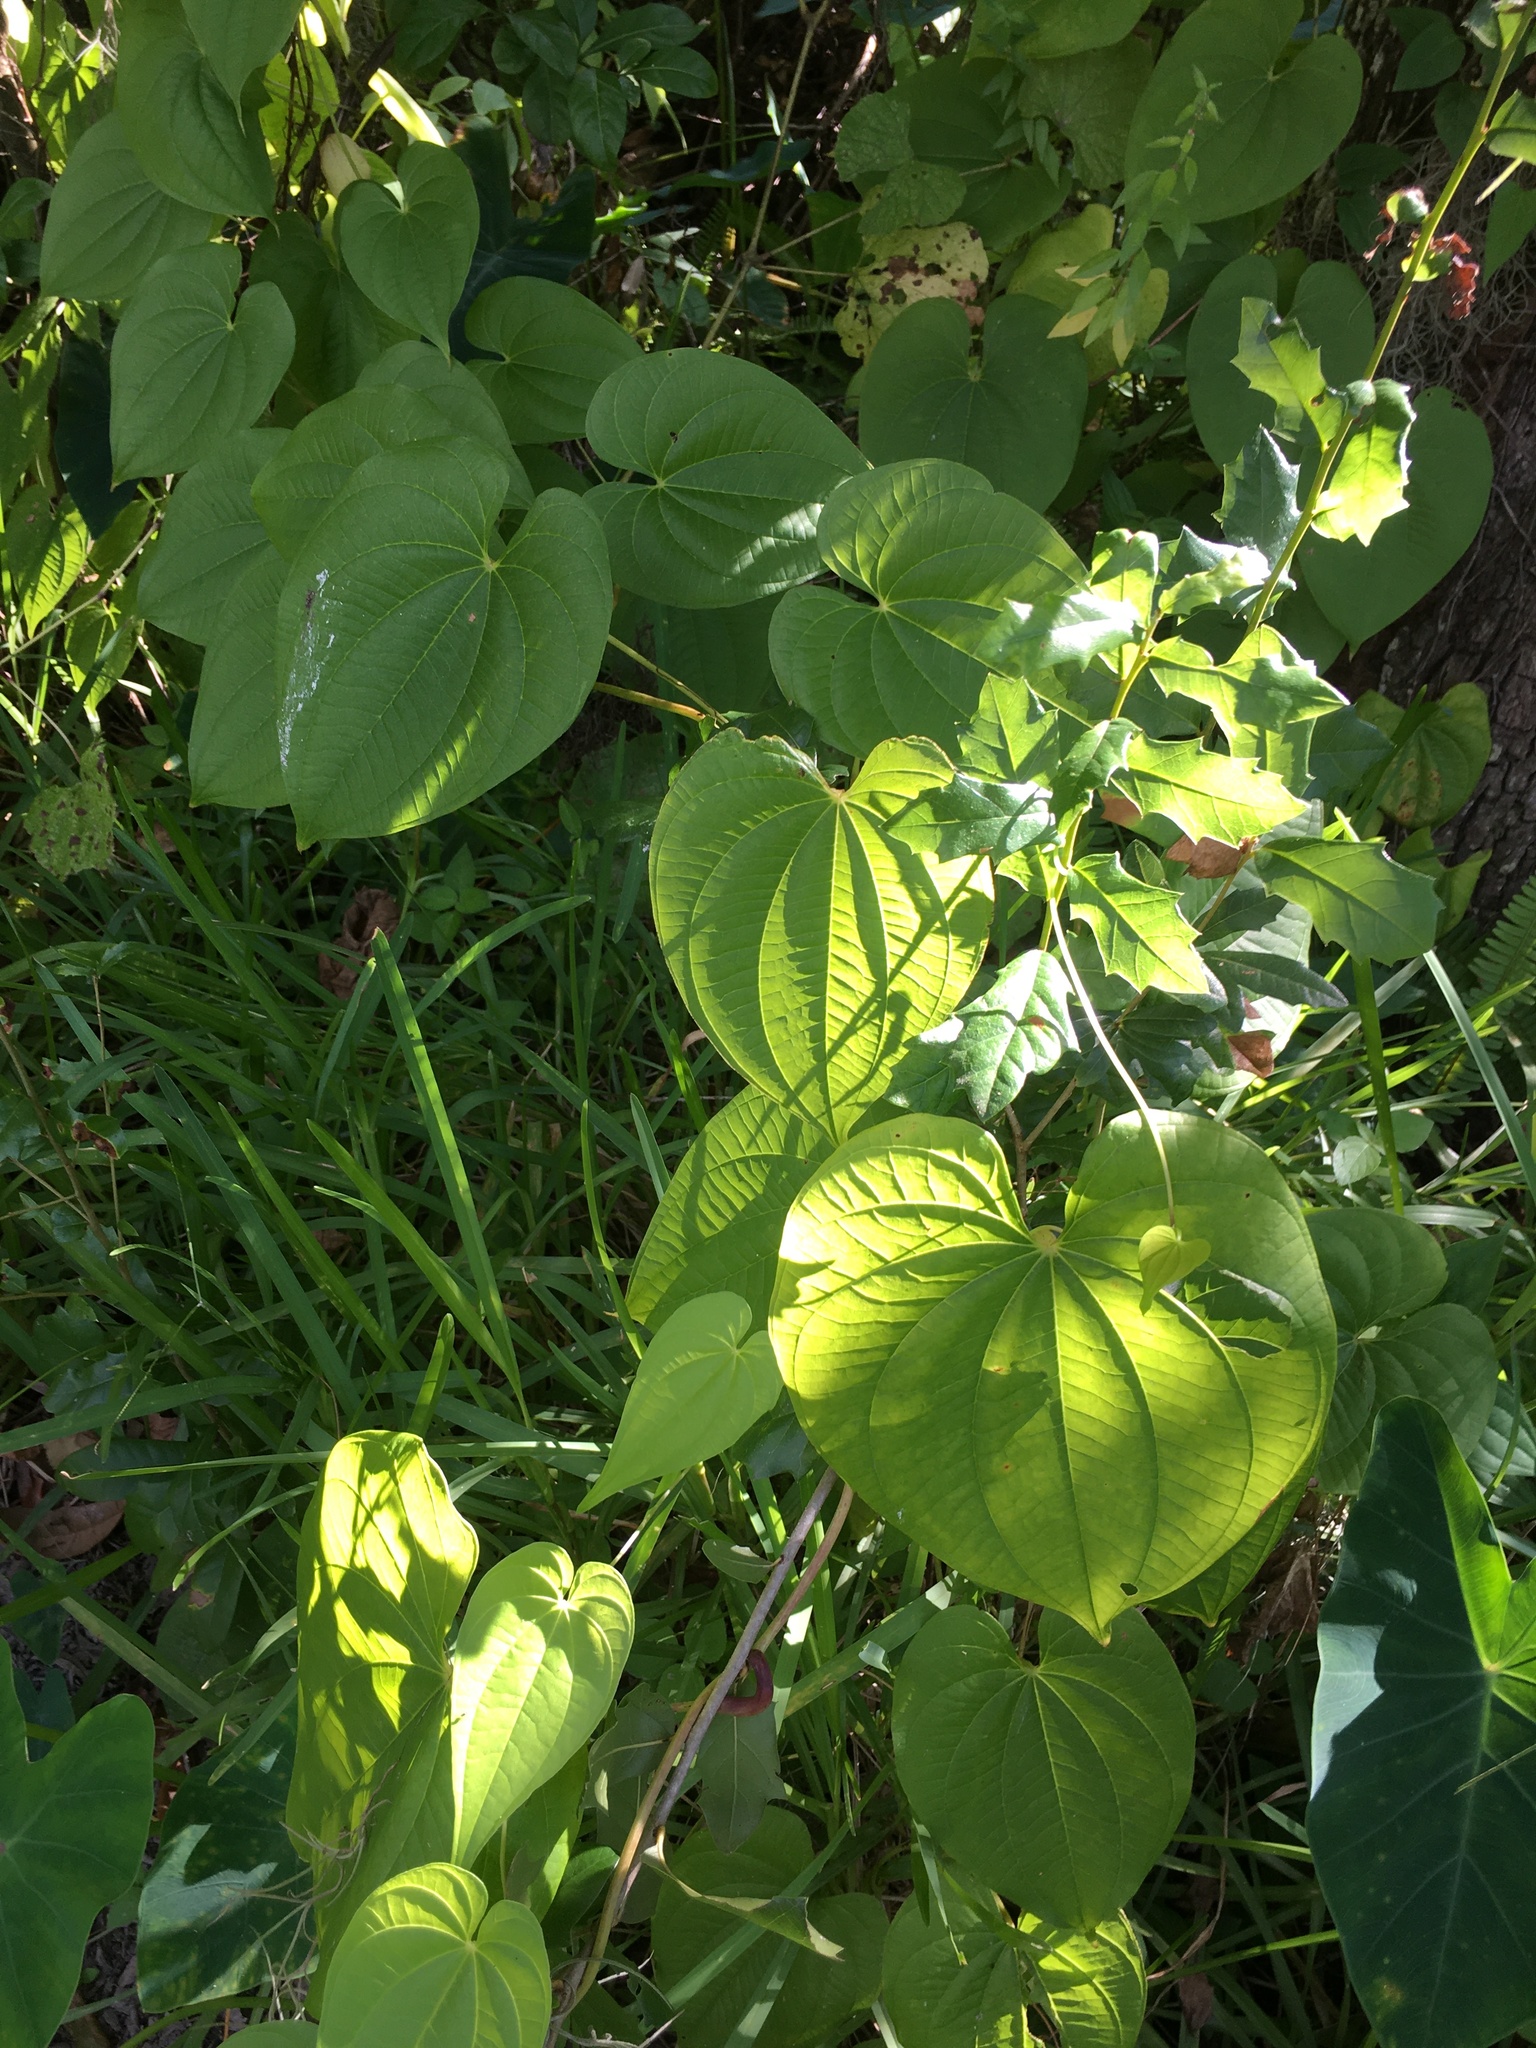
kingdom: Plantae
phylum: Tracheophyta
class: Liliopsida
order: Dioscoreales
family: Dioscoreaceae
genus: Dioscorea
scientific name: Dioscorea bulbifera
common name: Air yam
